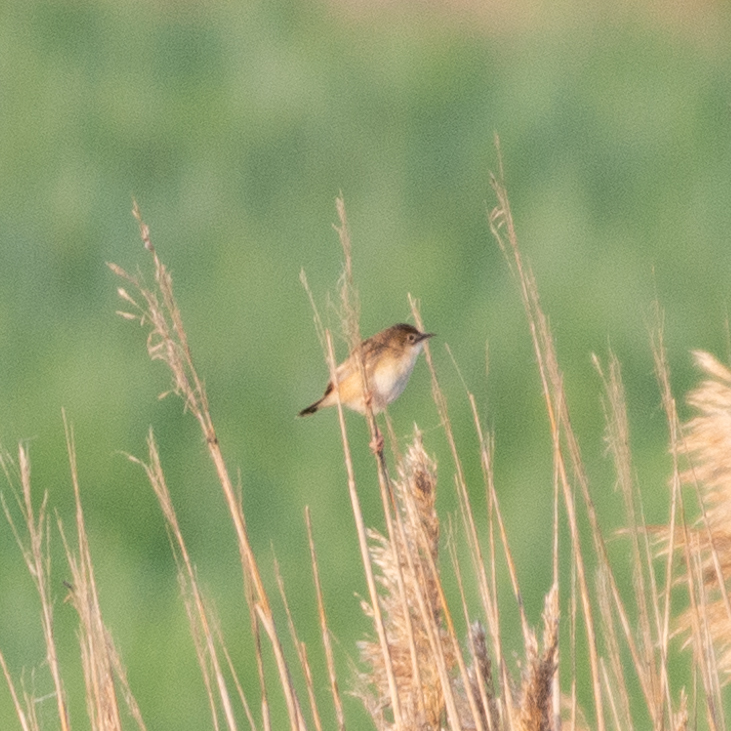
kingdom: Animalia
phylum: Chordata
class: Aves
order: Passeriformes
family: Cisticolidae
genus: Cisticola
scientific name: Cisticola juncidis
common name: Zitting cisticola
